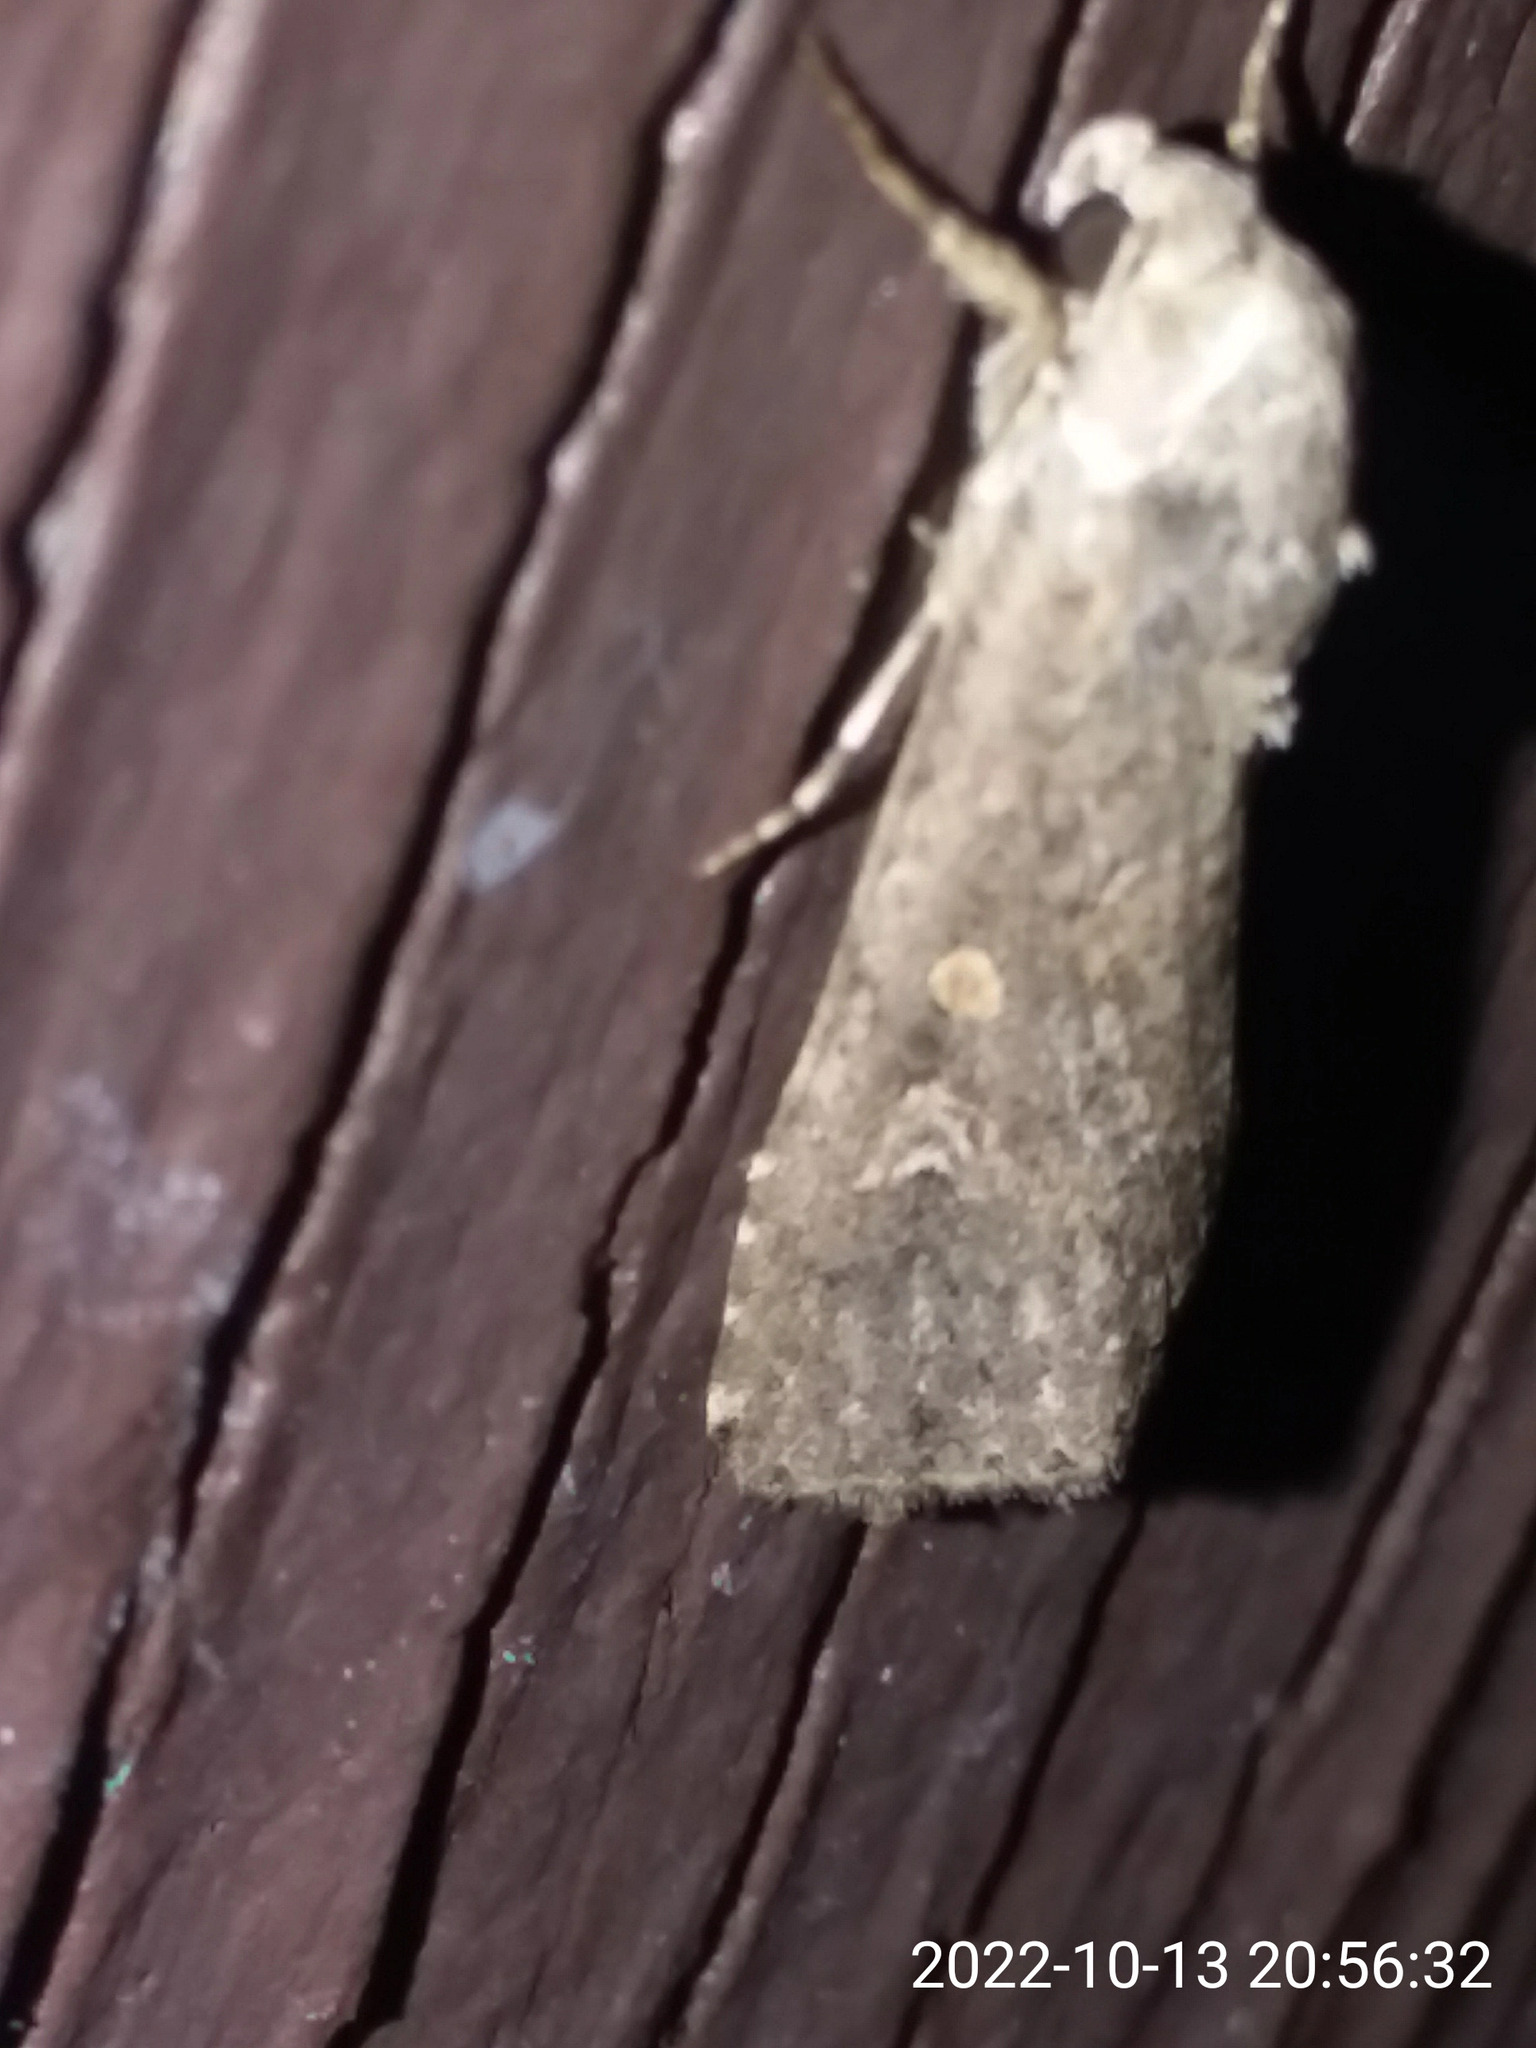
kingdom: Animalia
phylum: Arthropoda
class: Insecta
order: Lepidoptera
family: Noctuidae
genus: Spodoptera
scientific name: Spodoptera exigua
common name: Beet armyworm
